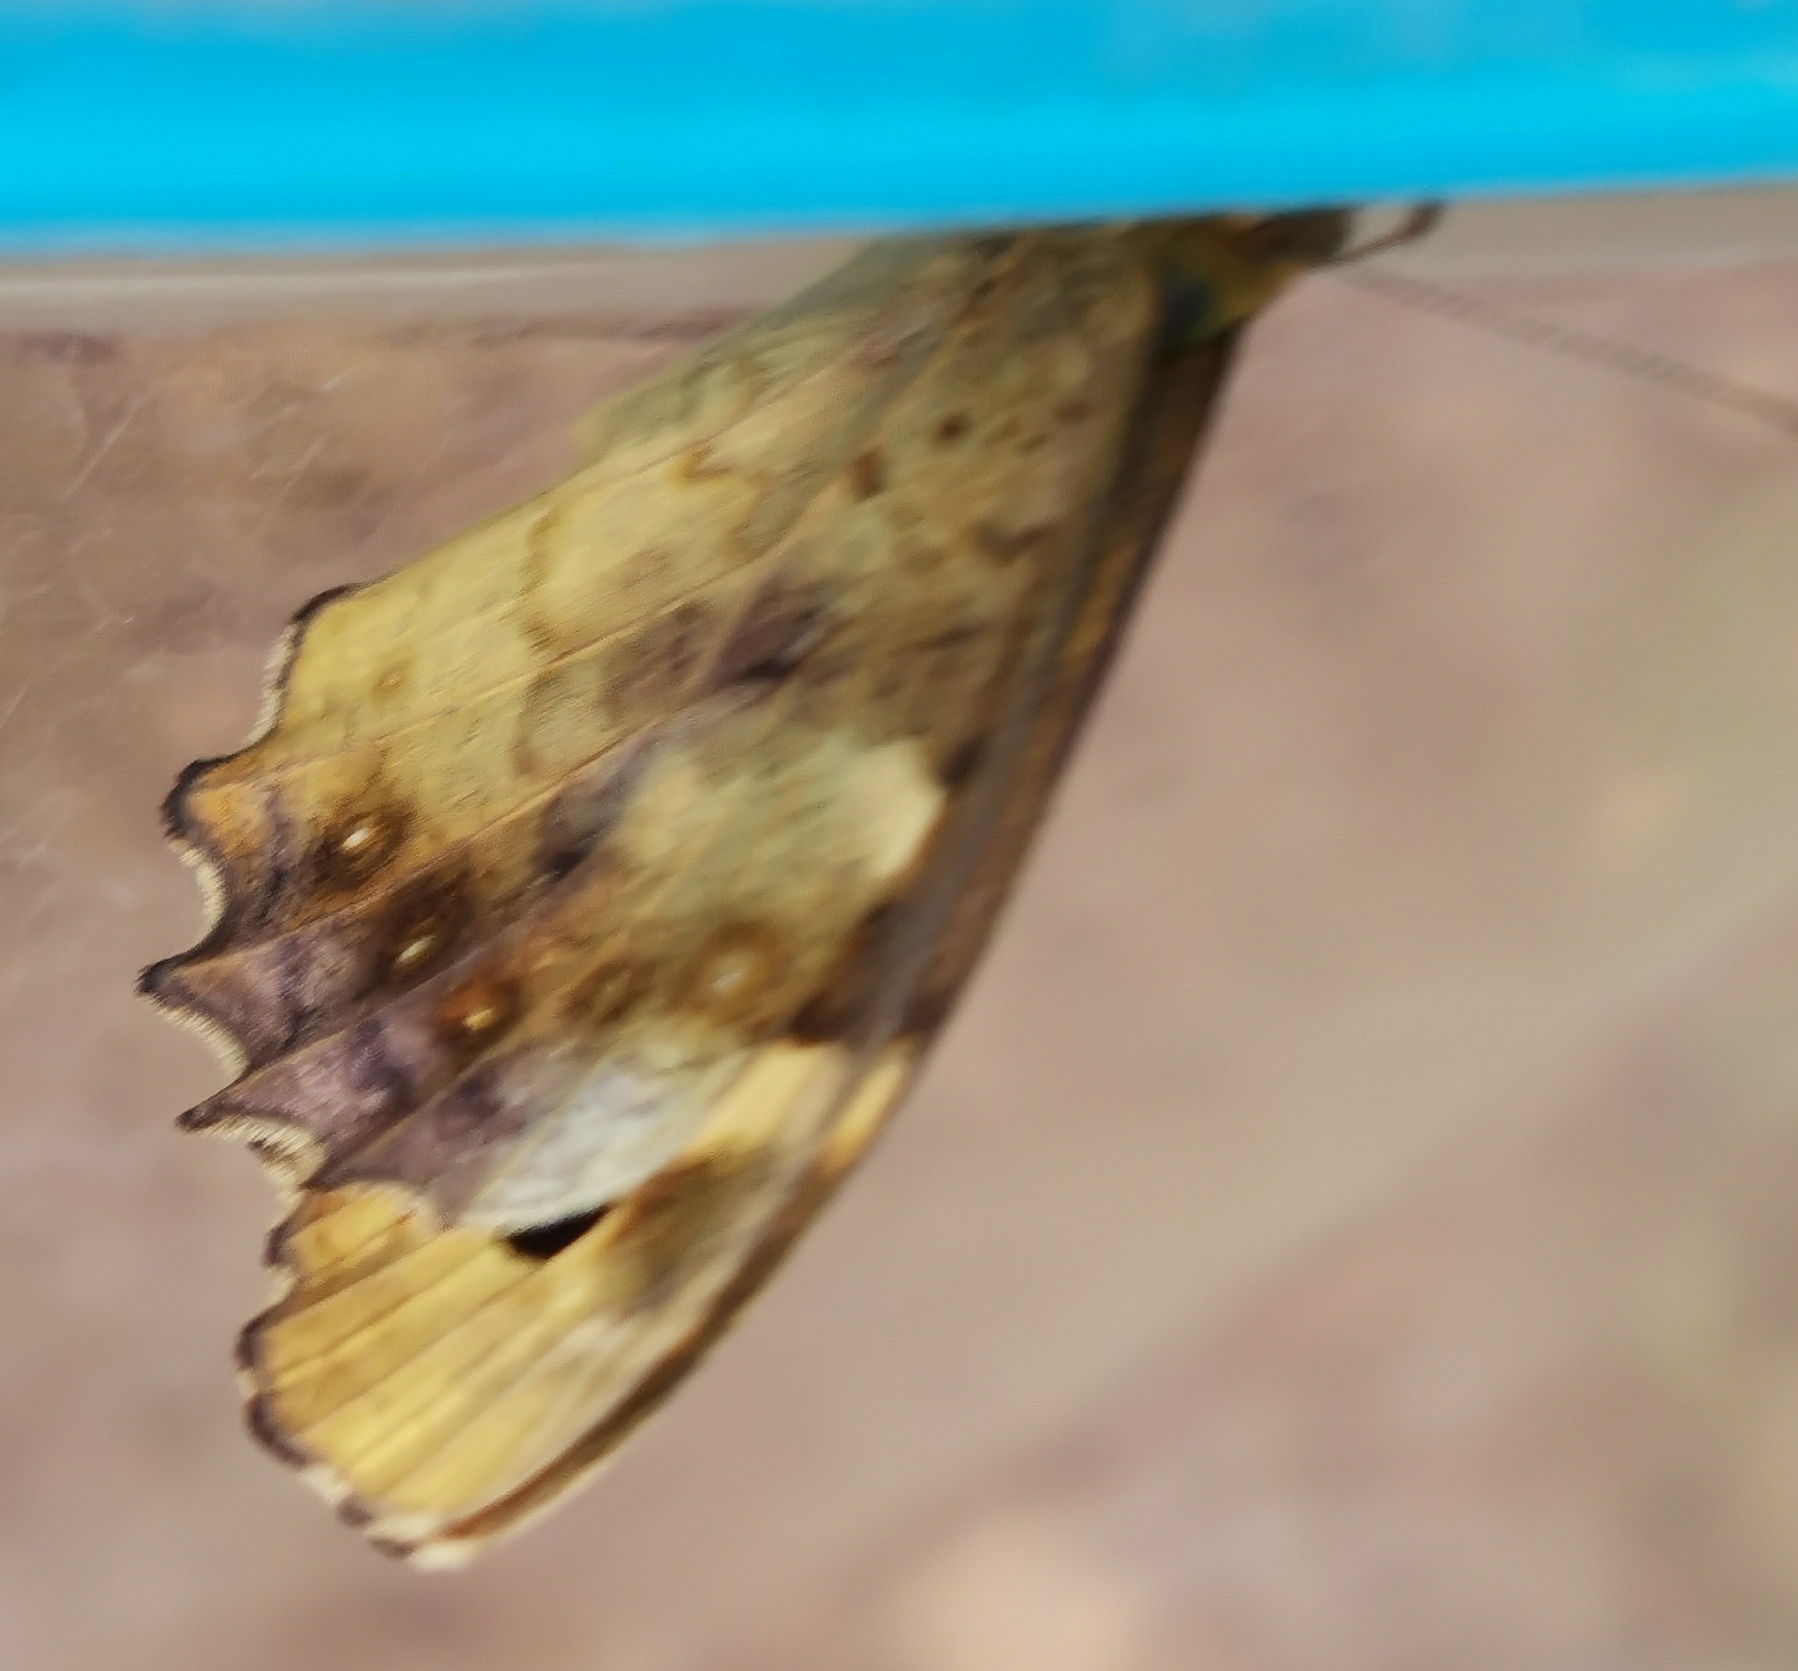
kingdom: Animalia
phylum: Arthropoda
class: Insecta
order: Lepidoptera
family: Nymphalidae
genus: Pararge
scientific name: Pararge aegeria
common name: Speckled wood
